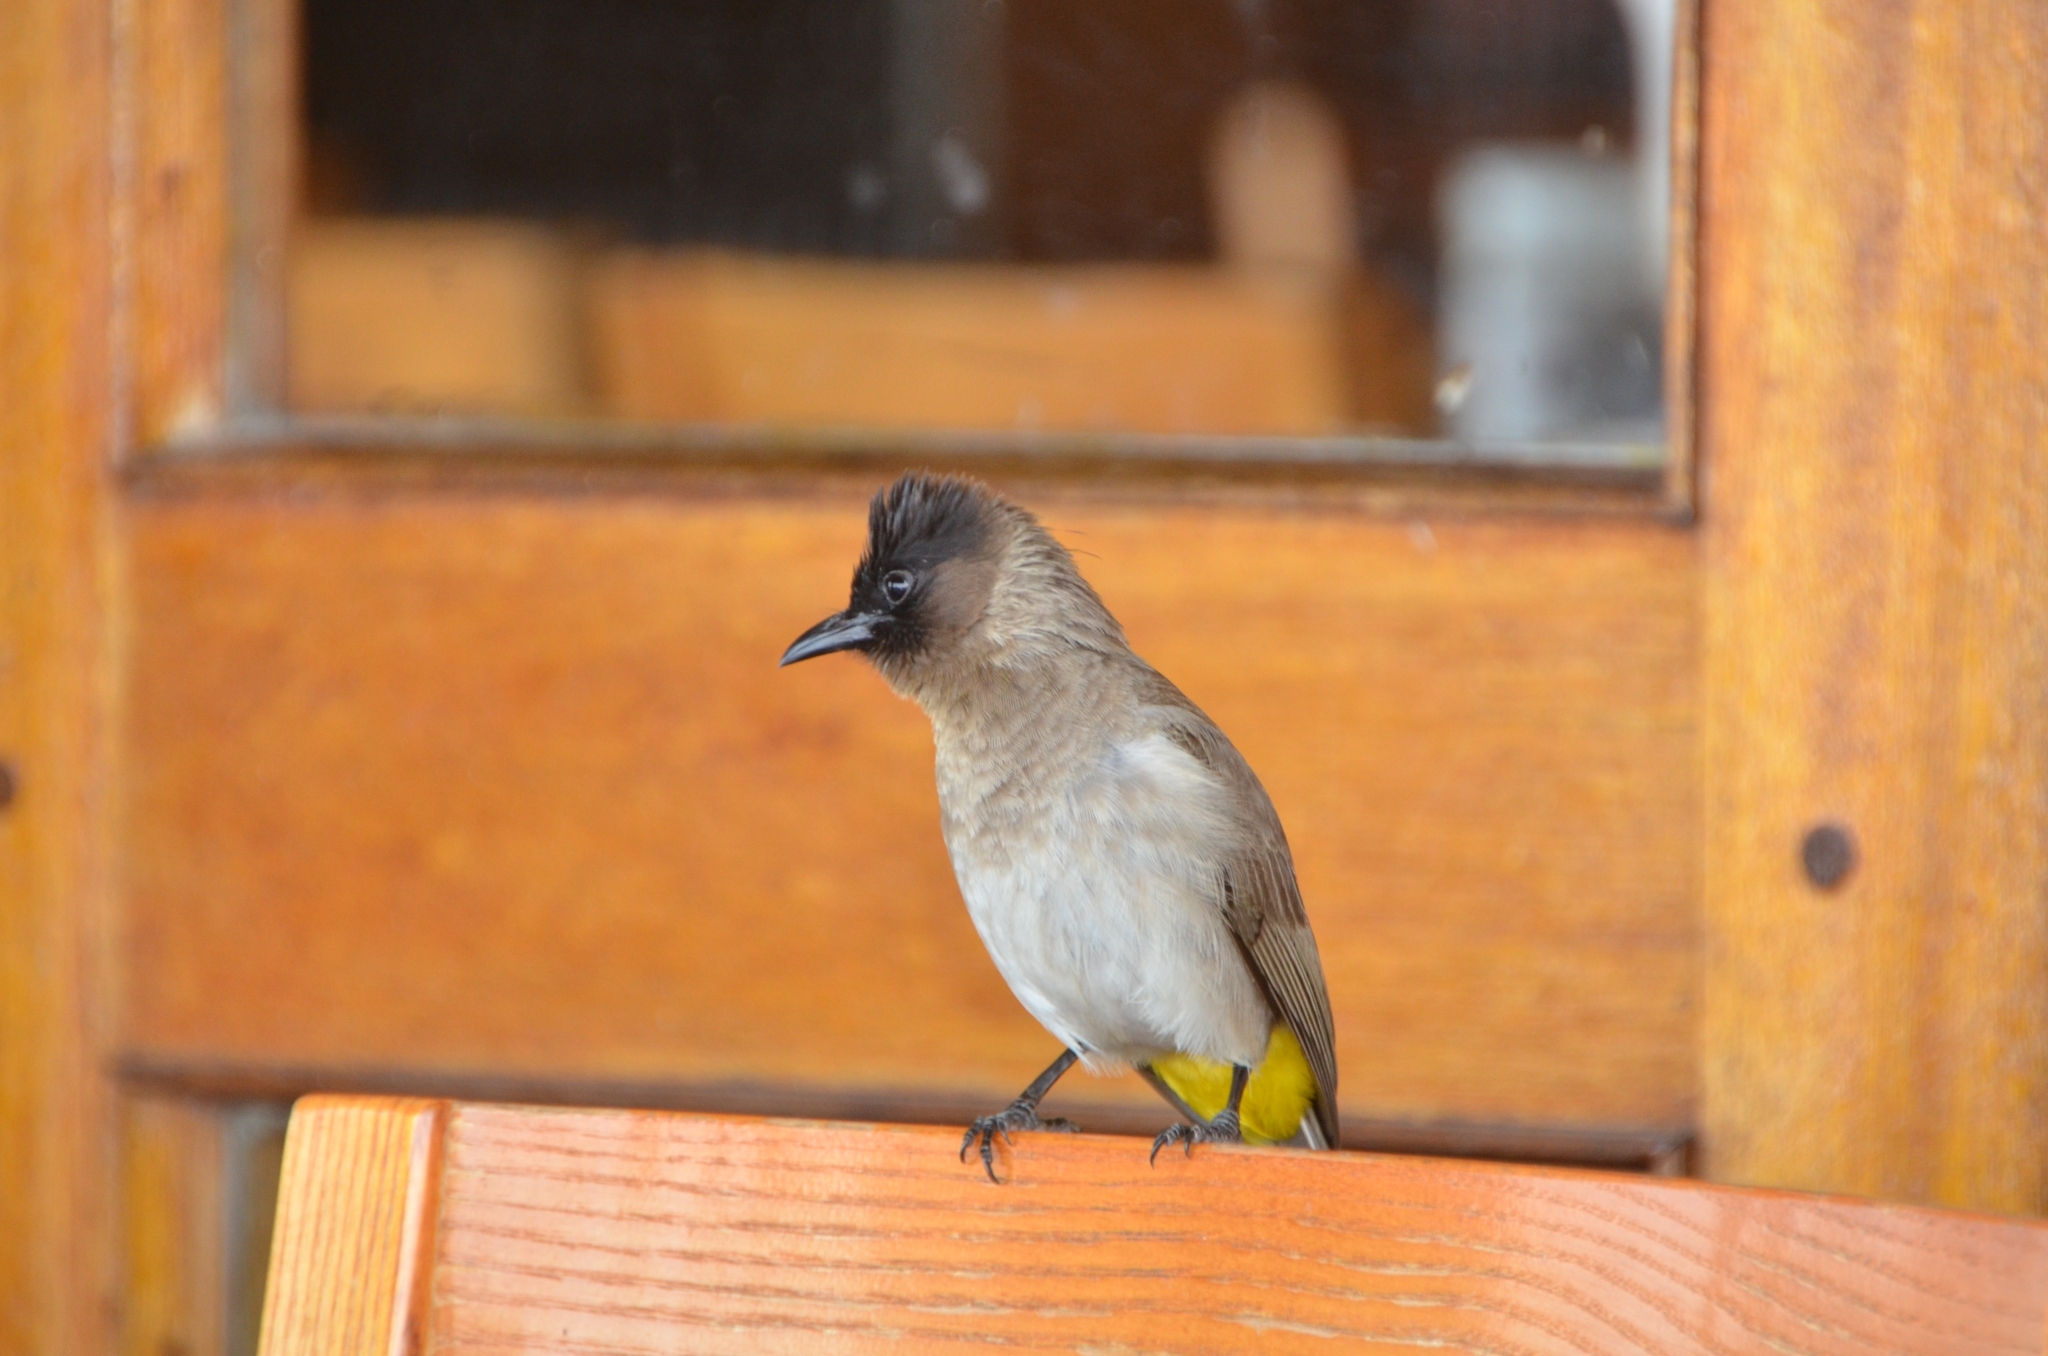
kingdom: Animalia
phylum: Chordata
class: Aves
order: Passeriformes
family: Pycnonotidae
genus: Pycnonotus
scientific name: Pycnonotus barbatus
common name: Common bulbul
